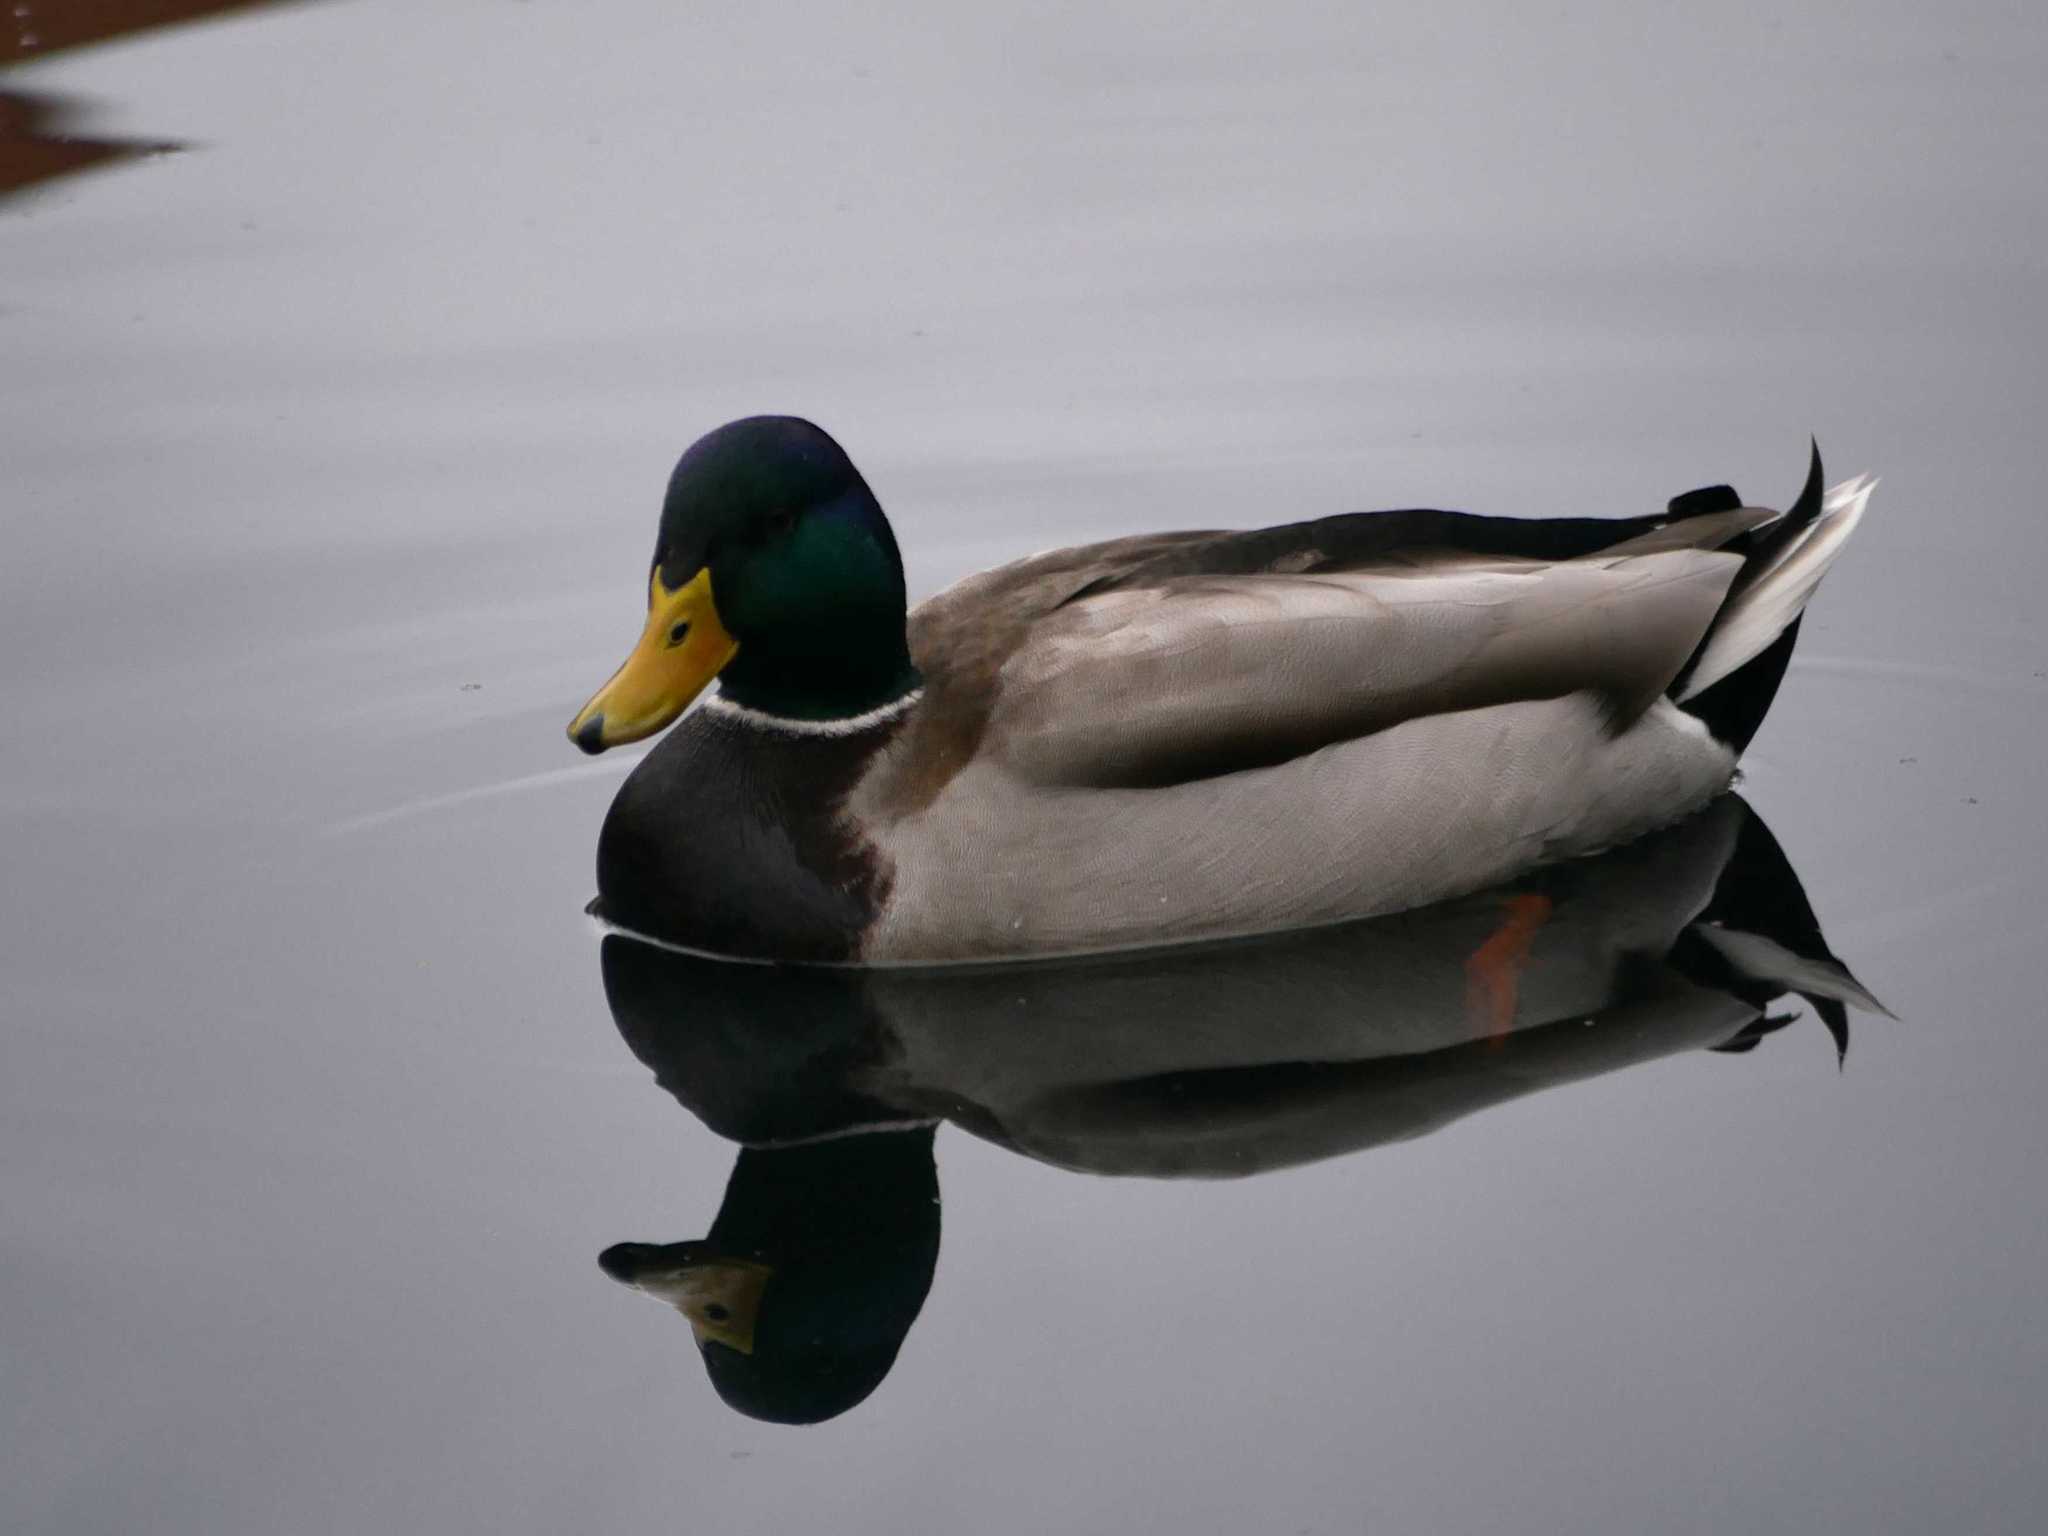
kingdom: Animalia
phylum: Chordata
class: Aves
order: Anseriformes
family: Anatidae
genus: Anas
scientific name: Anas platyrhynchos
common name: Mallard
